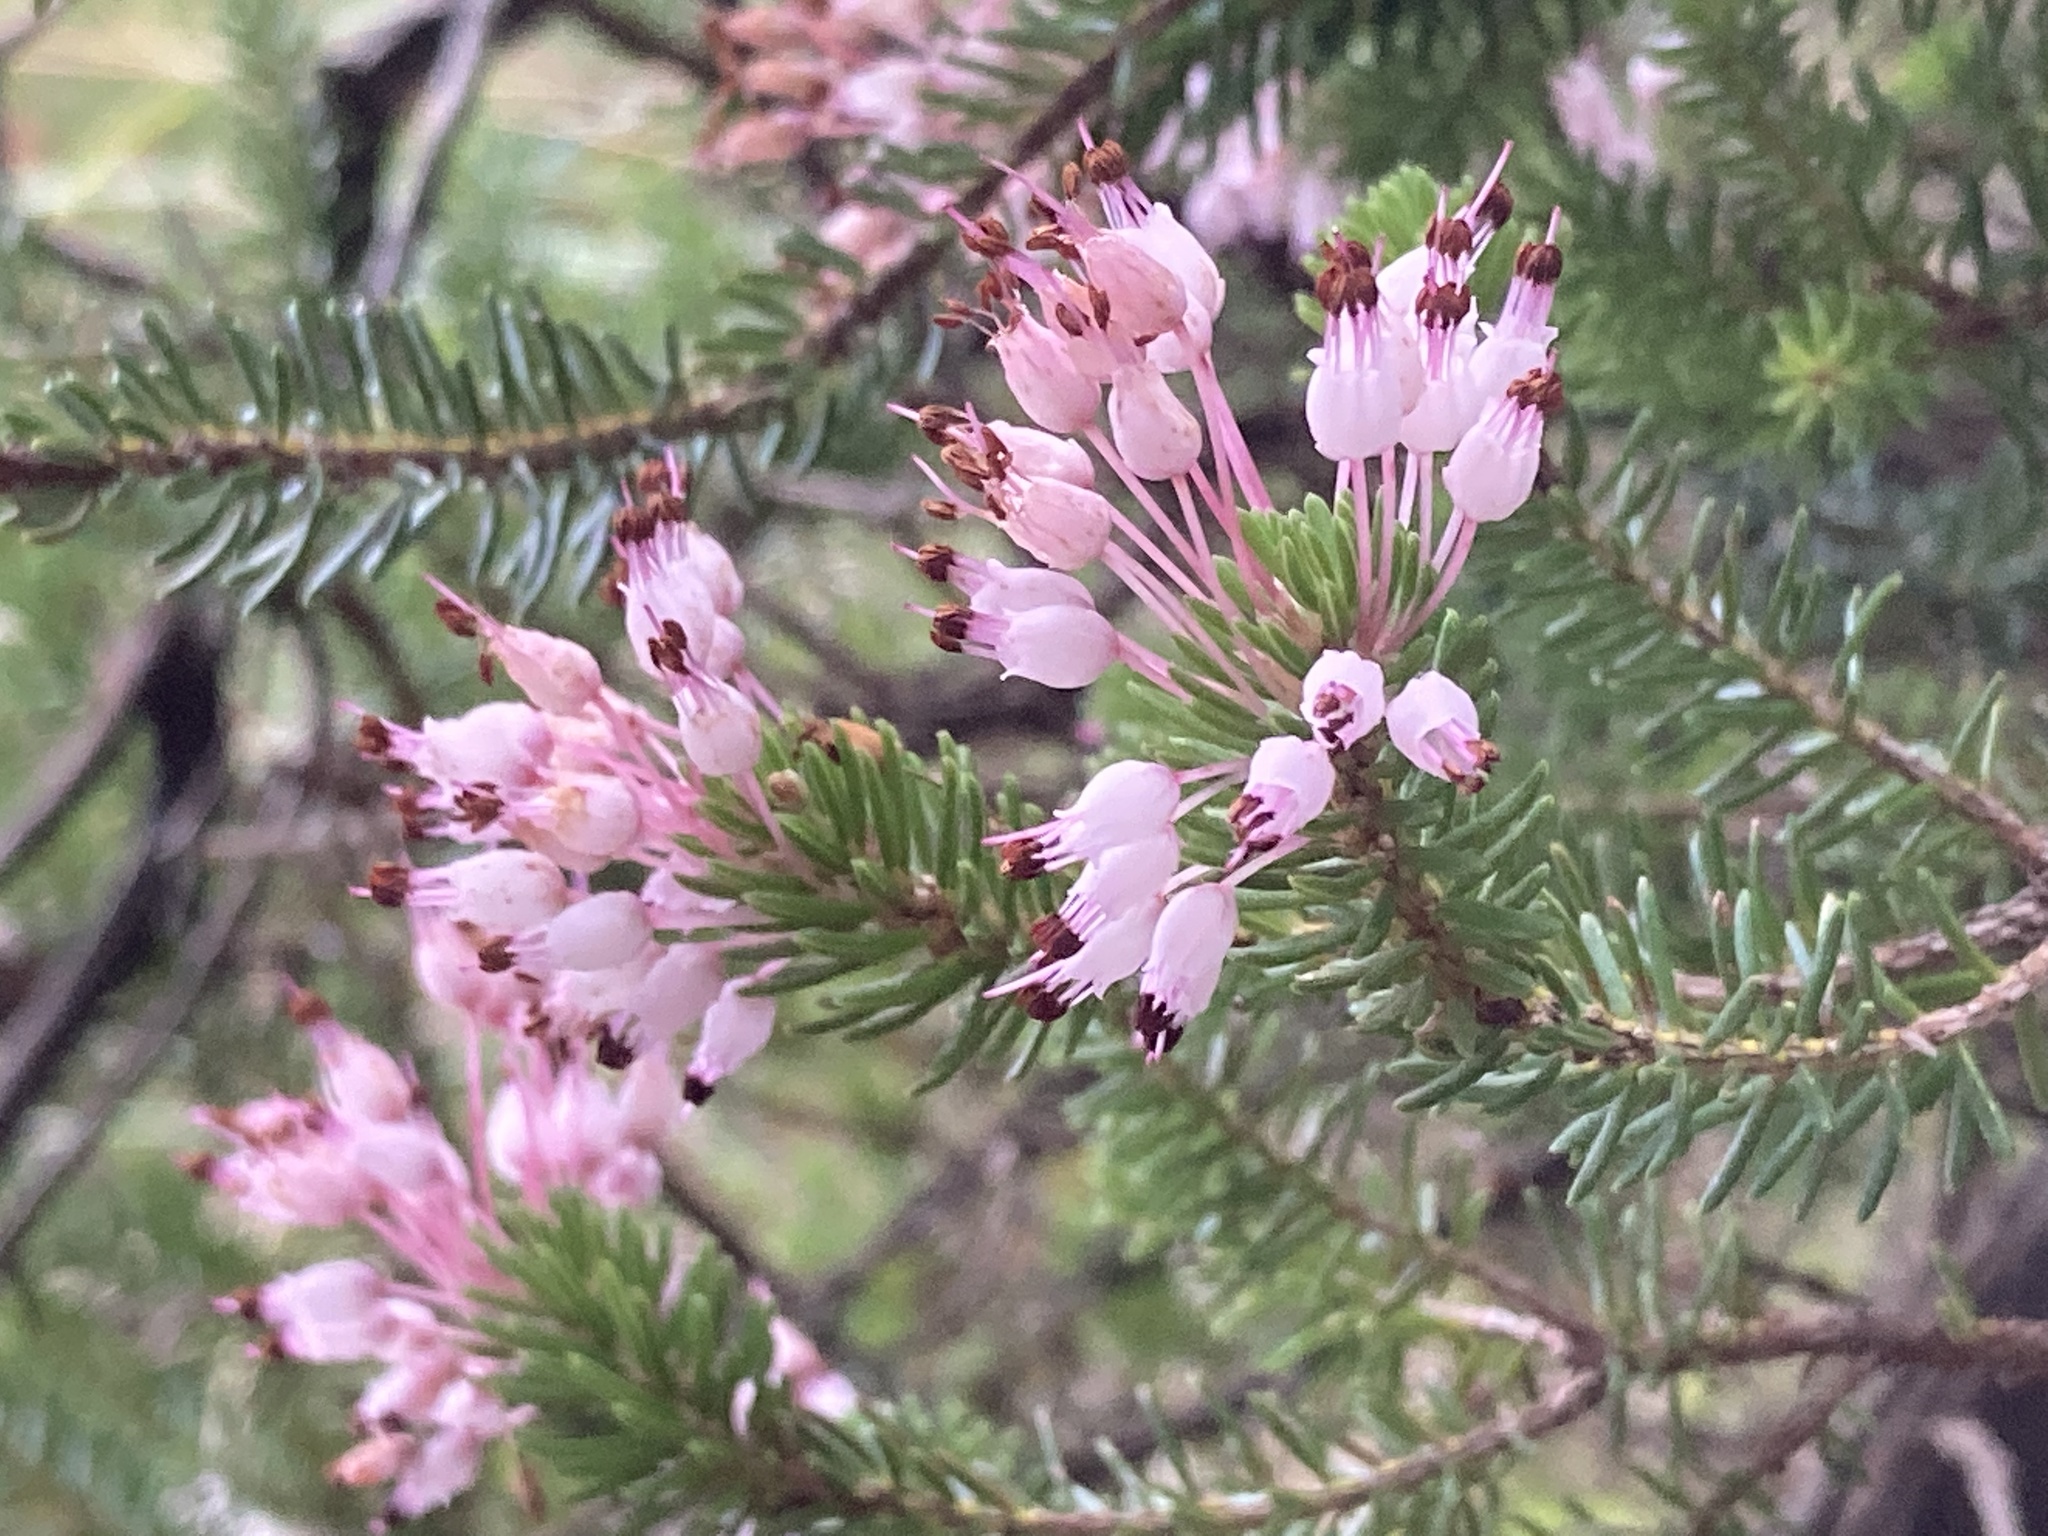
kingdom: Plantae
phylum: Tracheophyta
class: Magnoliopsida
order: Ericales
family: Ericaceae
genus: Erica
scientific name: Erica multiflora
